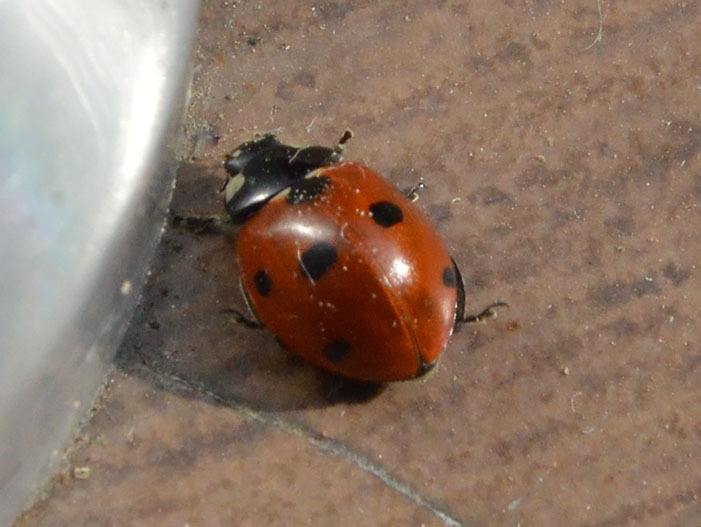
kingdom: Animalia
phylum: Arthropoda
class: Insecta
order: Coleoptera
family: Coccinellidae
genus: Coccinella
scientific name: Coccinella septempunctata
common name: Sevenspotted lady beetle
